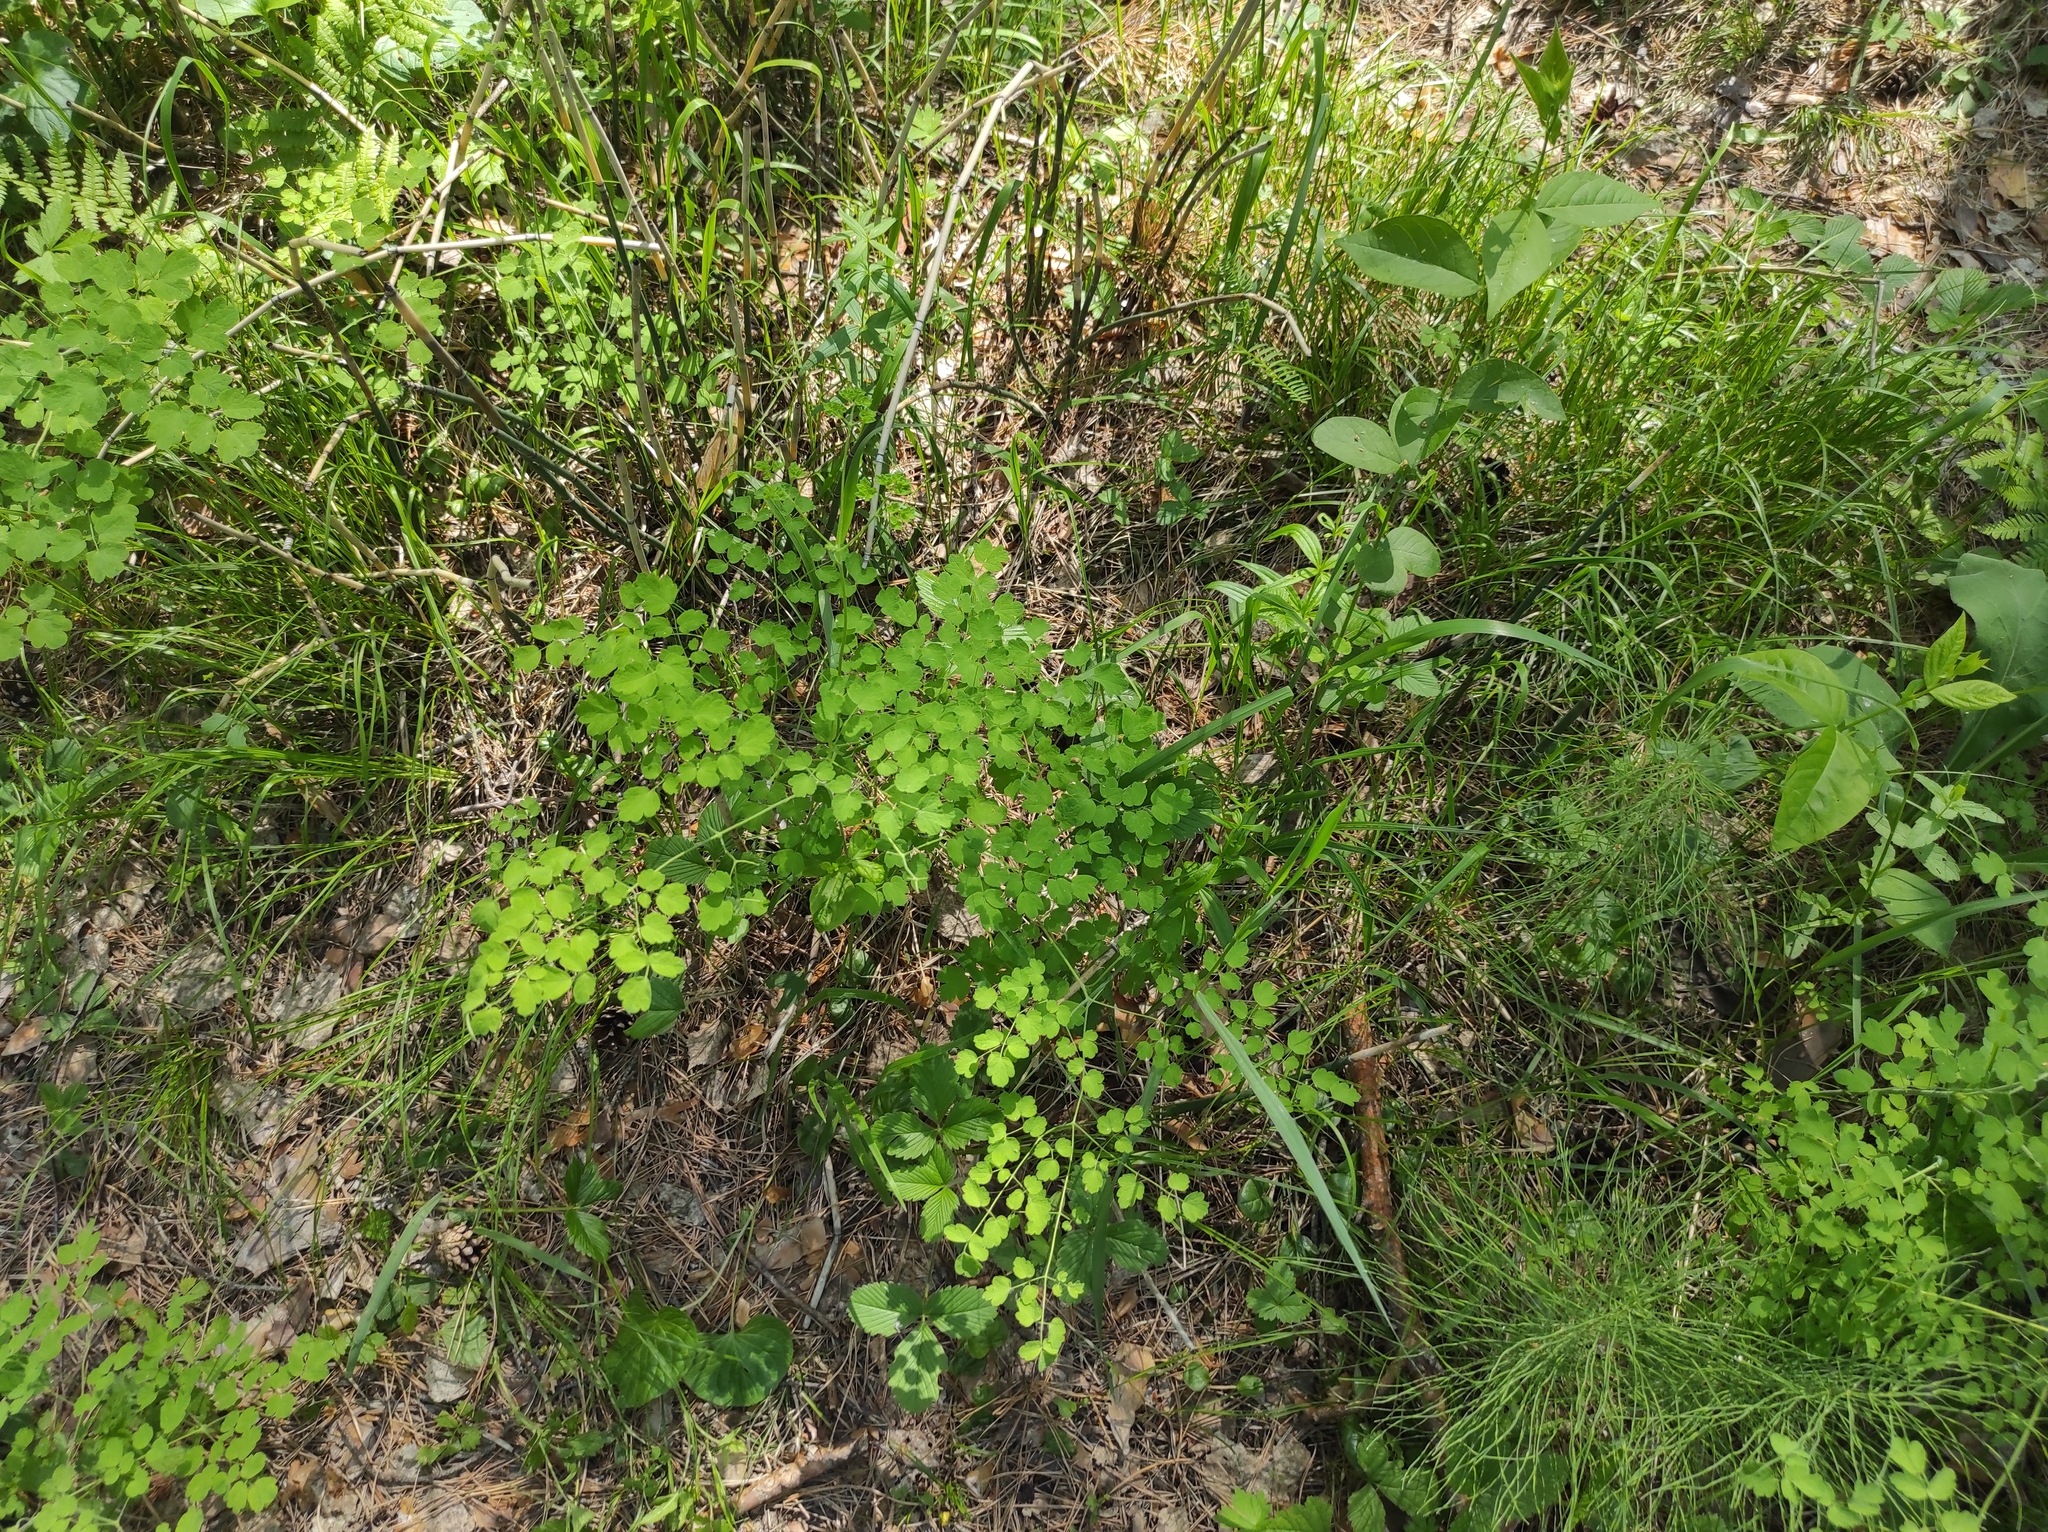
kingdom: Plantae
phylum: Tracheophyta
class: Magnoliopsida
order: Ranunculales
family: Ranunculaceae
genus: Thalictrum
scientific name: Thalictrum minus
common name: Lesser meadow-rue
